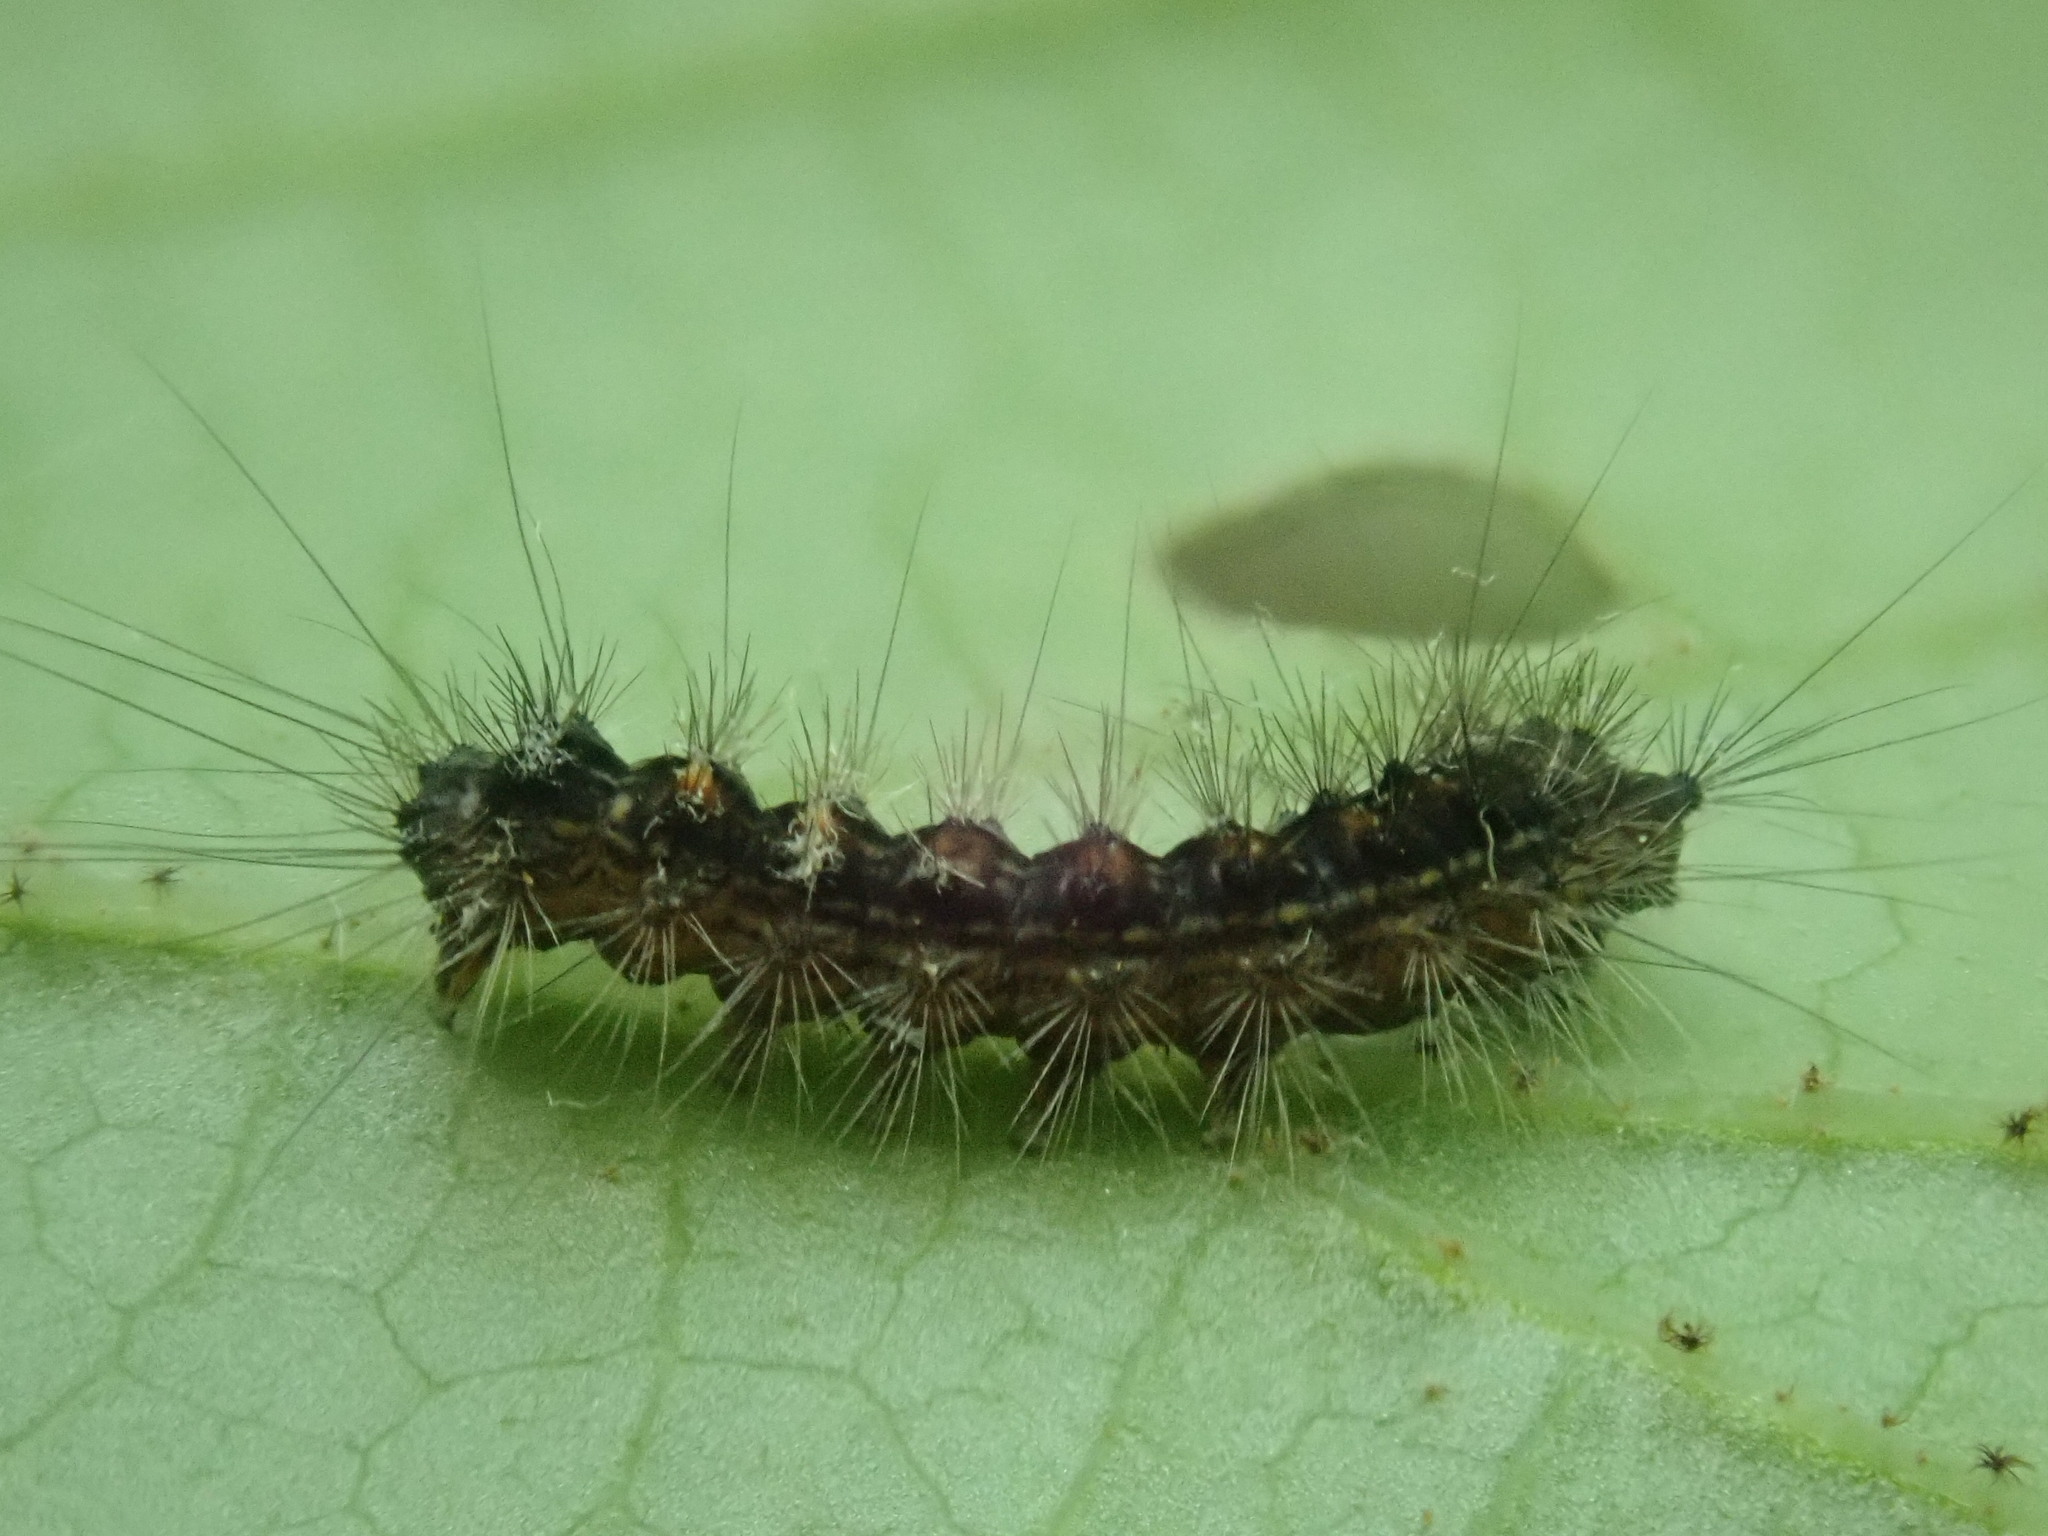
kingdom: Animalia
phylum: Arthropoda
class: Insecta
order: Lepidoptera
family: Erebidae
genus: Lymantria
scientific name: Lymantria dispar
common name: Gypsy moth
